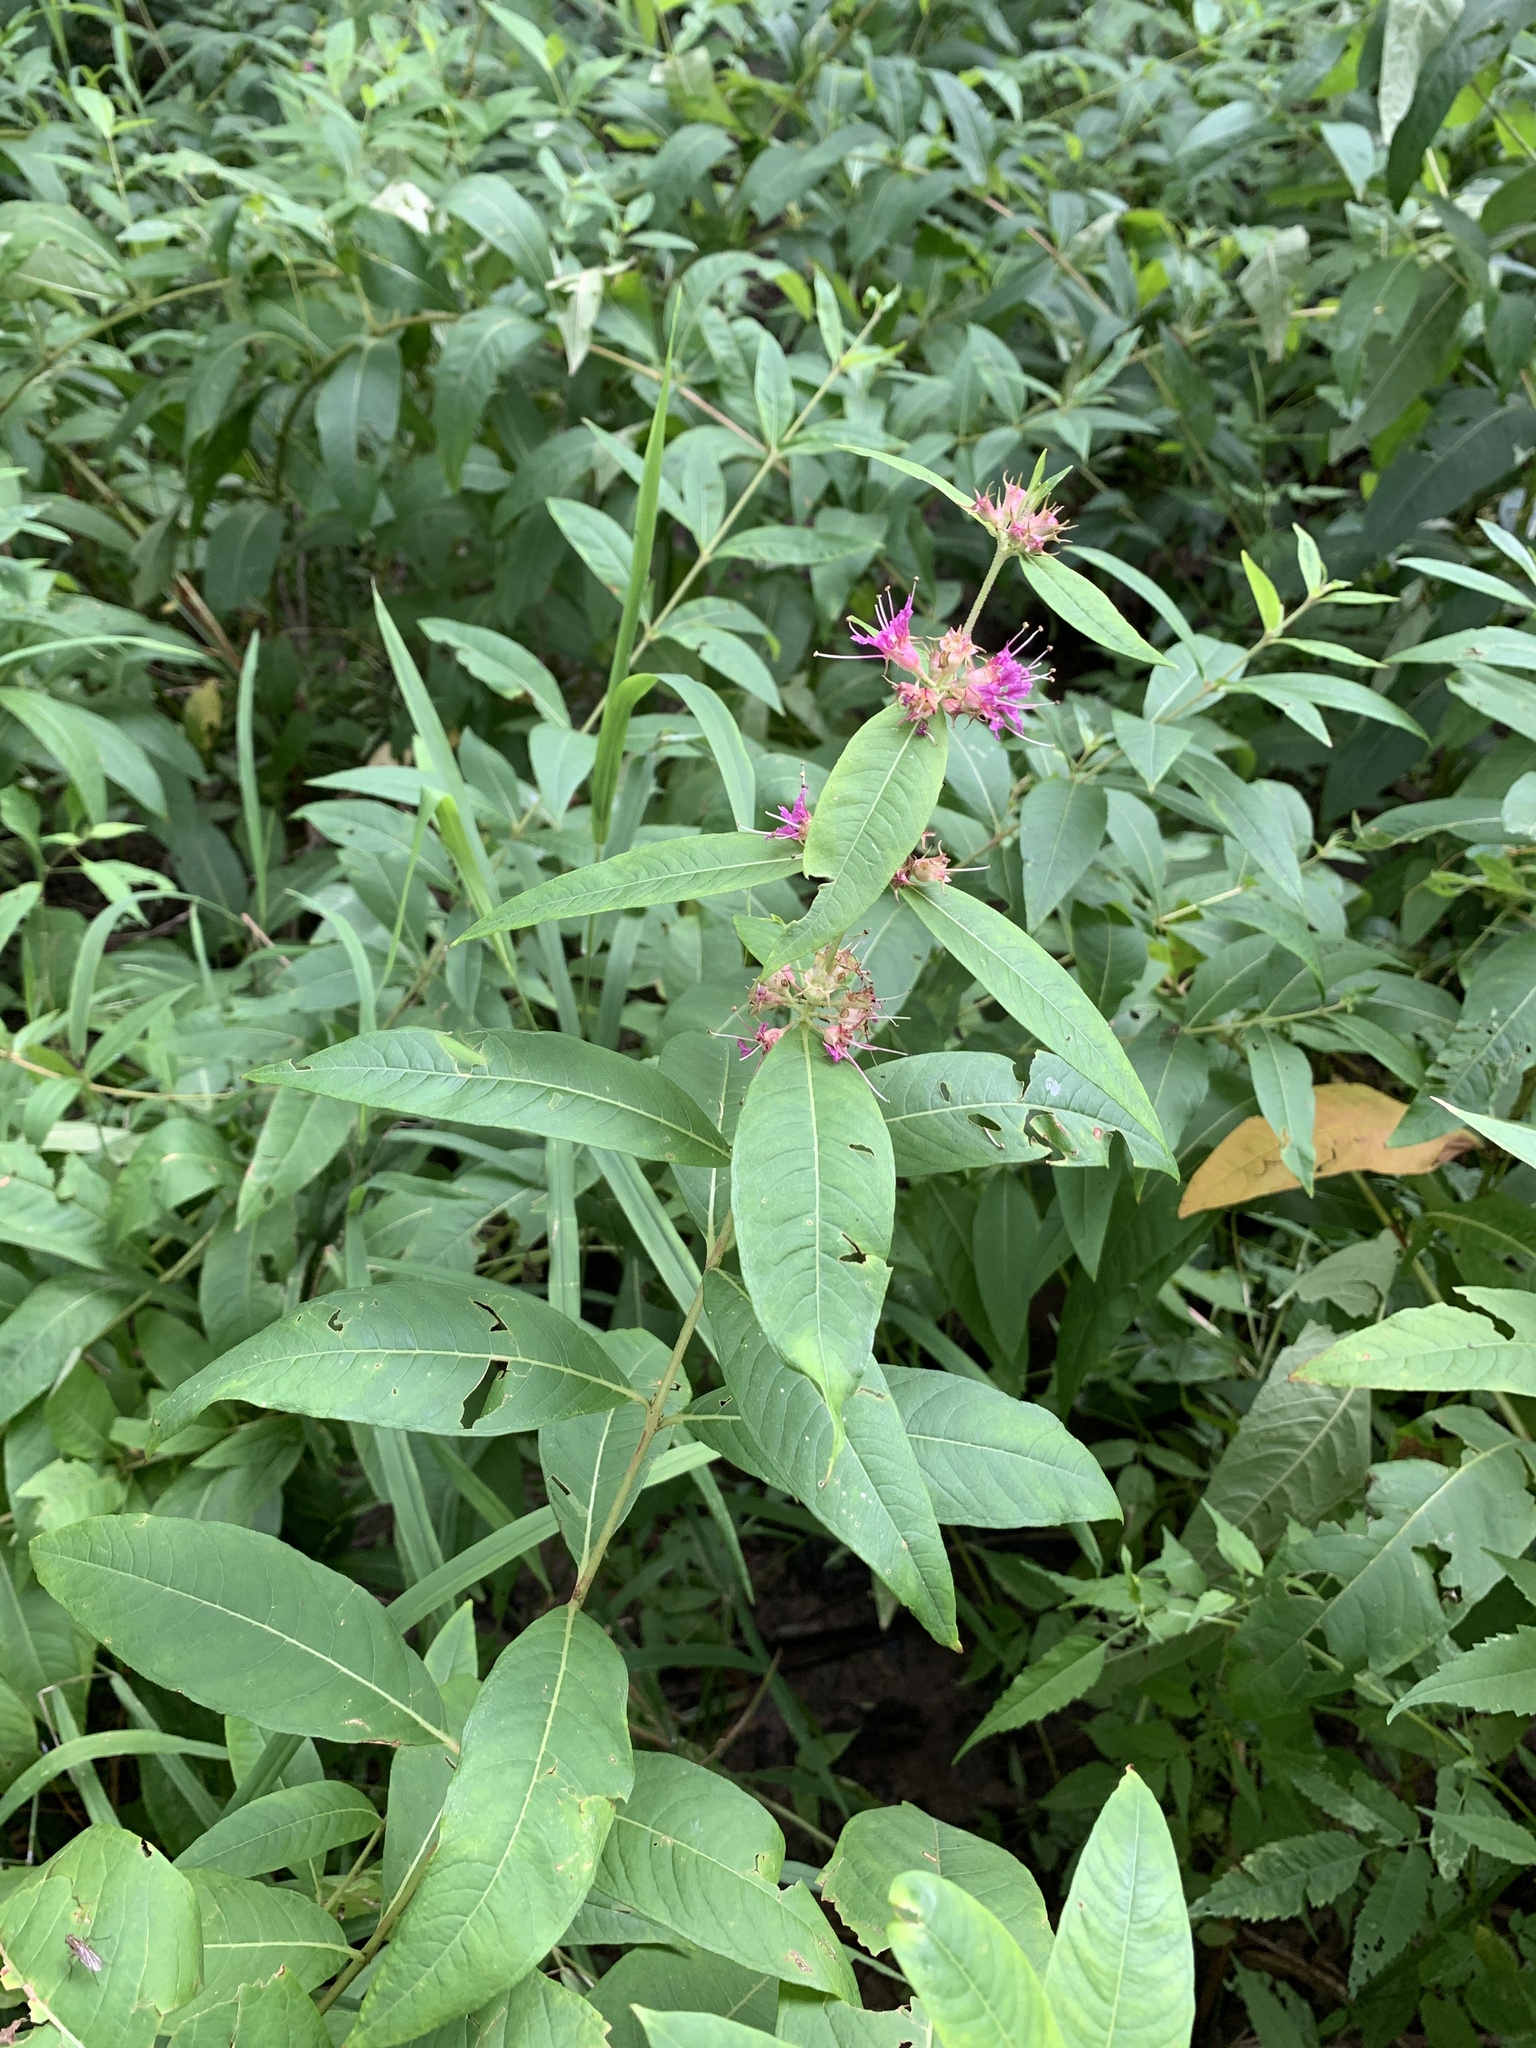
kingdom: Plantae
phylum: Tracheophyta
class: Magnoliopsida
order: Myrtales
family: Lythraceae
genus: Decodon
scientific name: Decodon verticillatus
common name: Hairy swamp loosestrife
